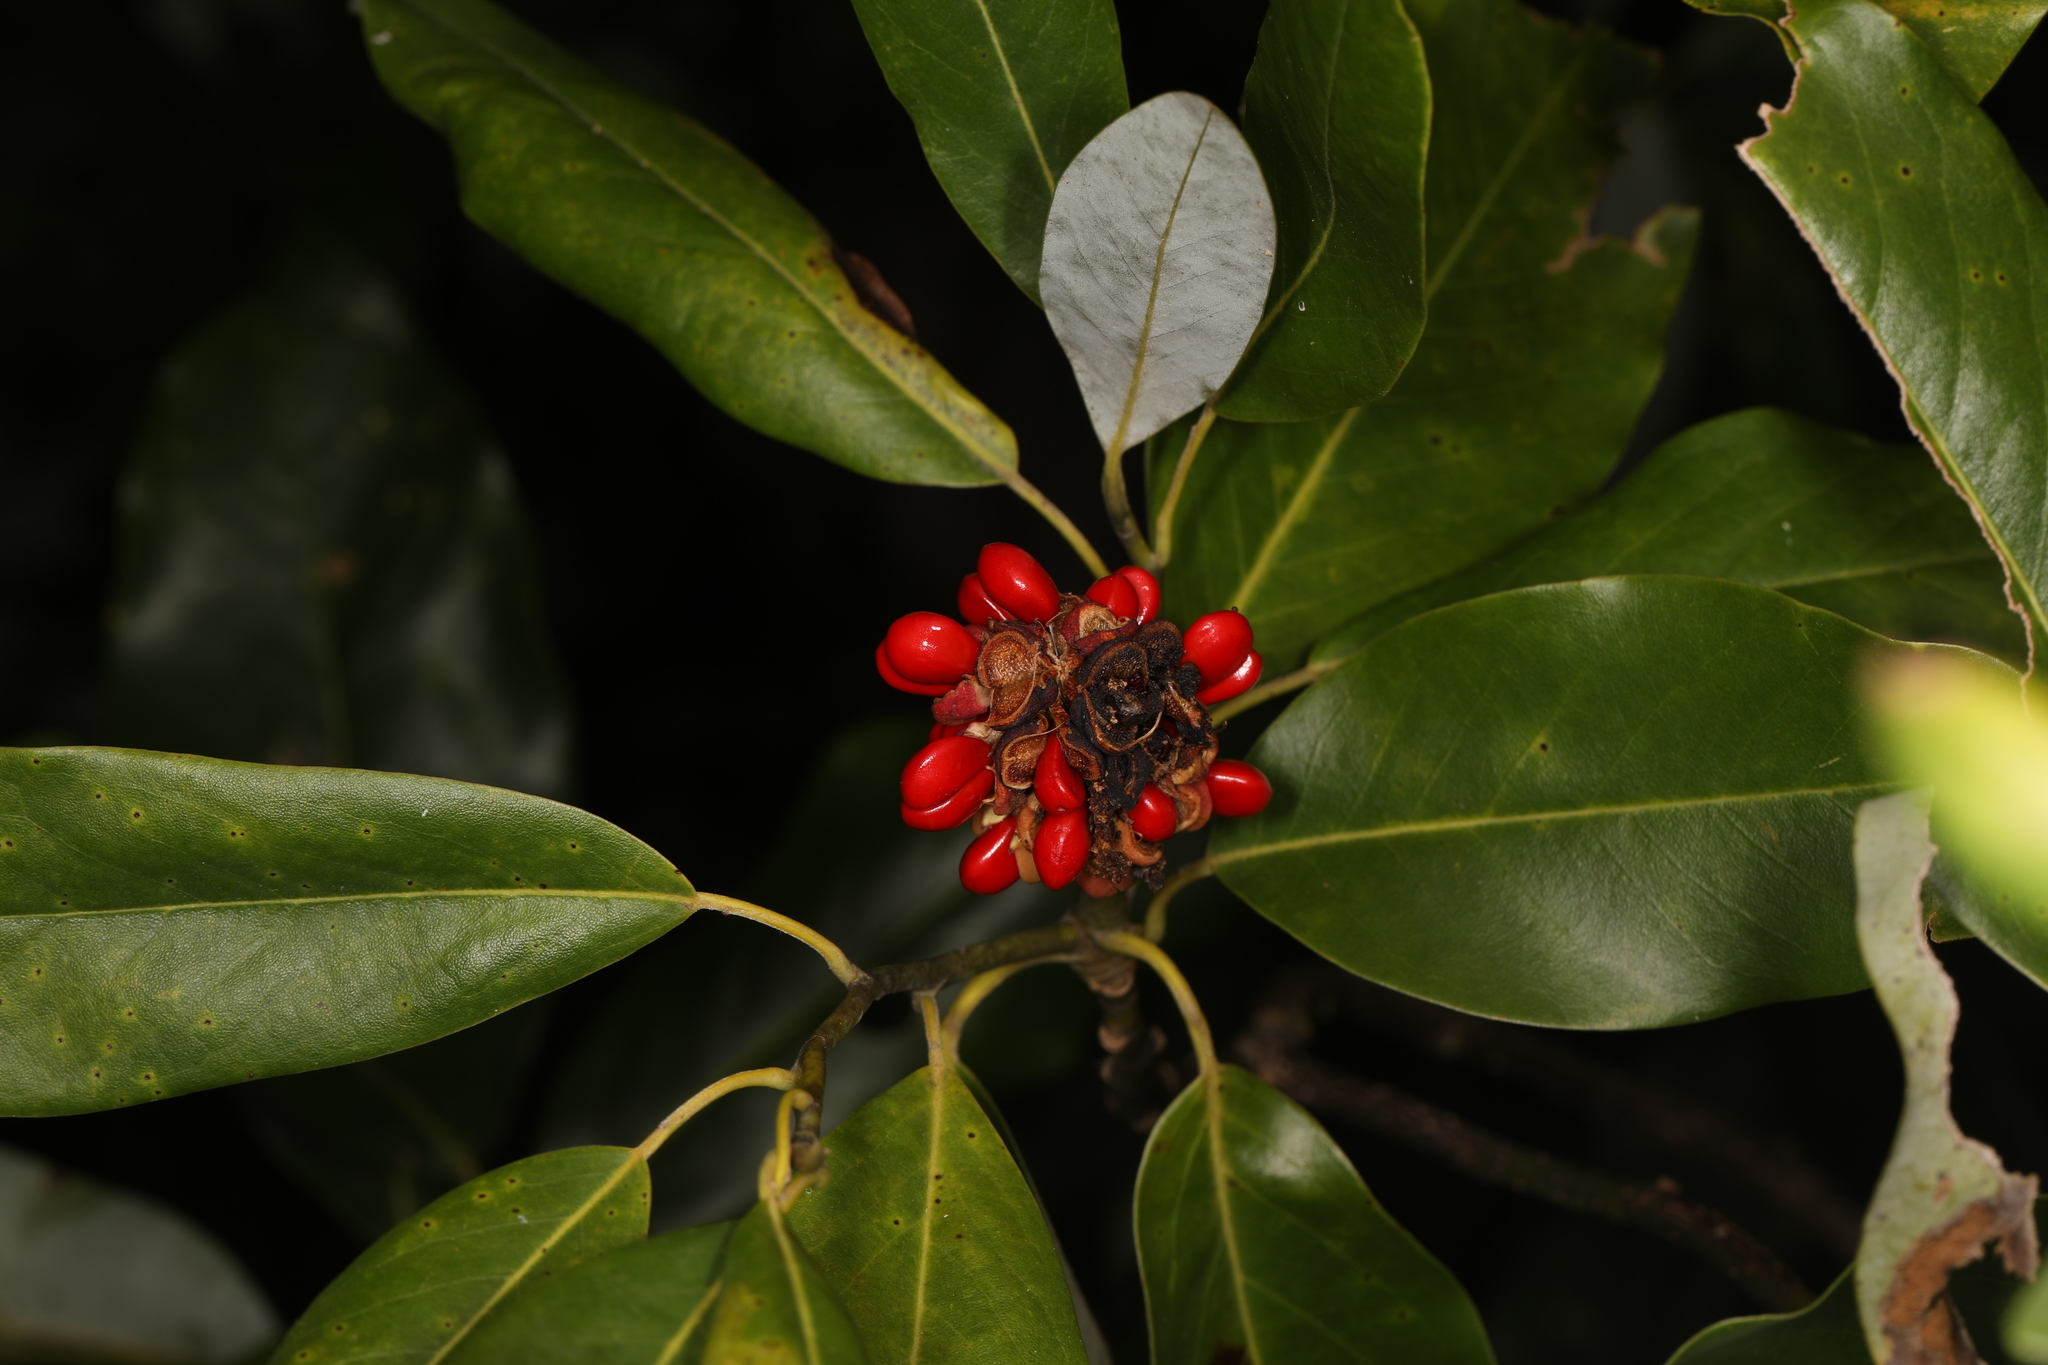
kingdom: Plantae
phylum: Tracheophyta
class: Magnoliopsida
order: Magnoliales
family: Magnoliaceae
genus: Magnolia
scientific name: Magnolia virginiana
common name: Swamp bay
